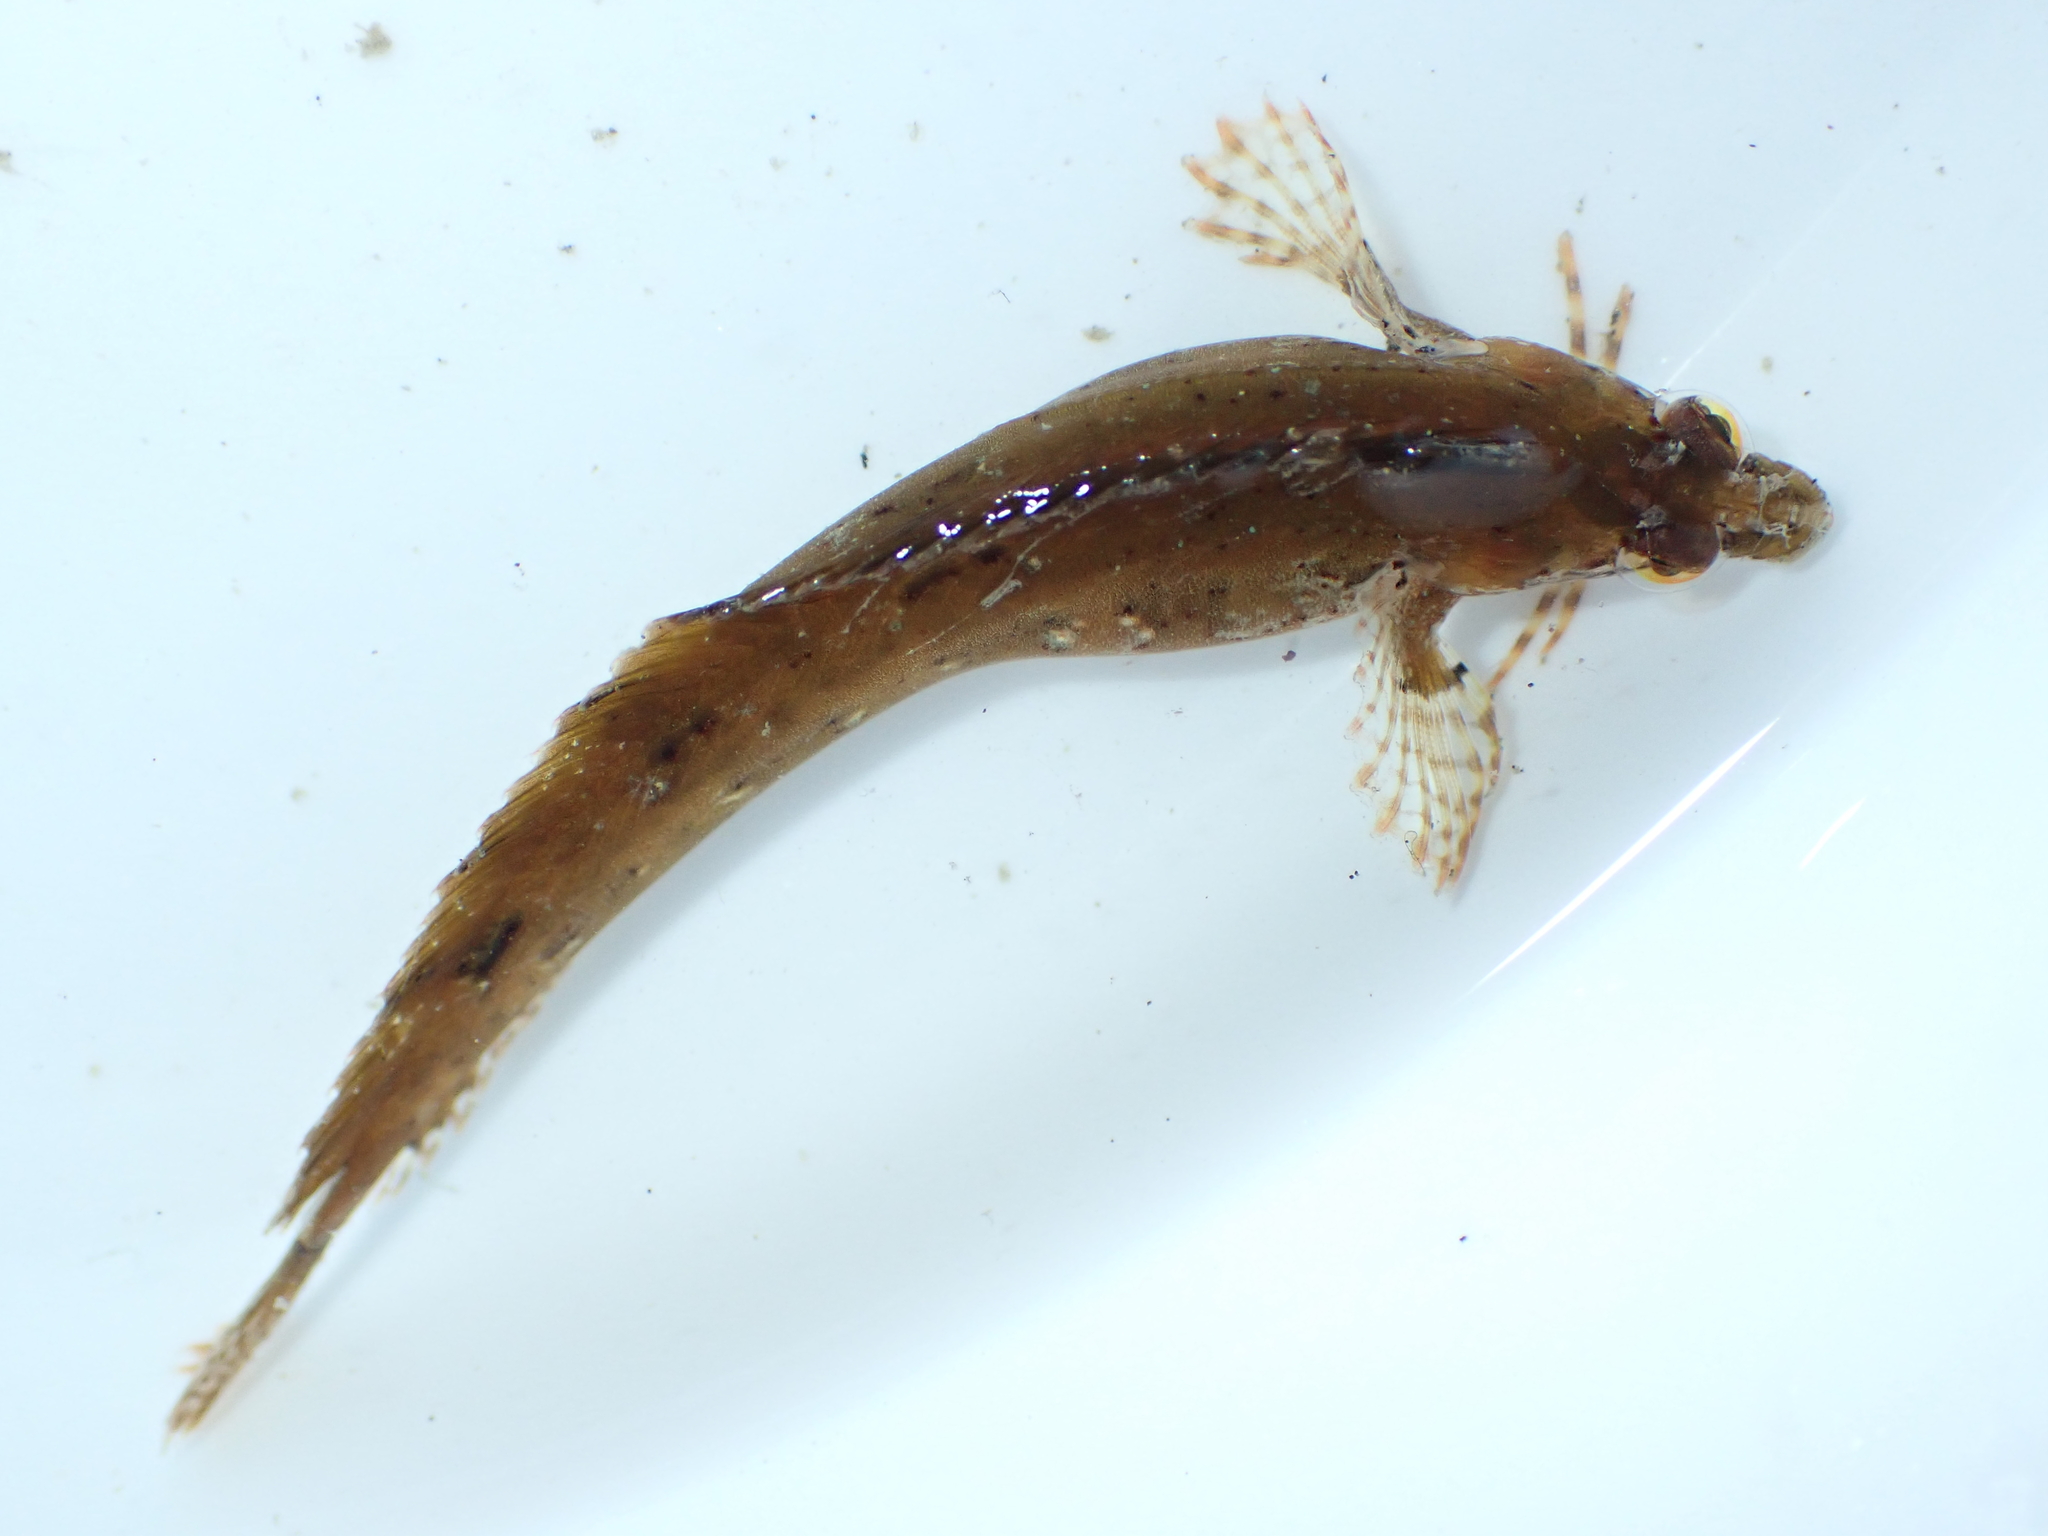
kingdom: Animalia
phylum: Chordata
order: Perciformes
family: Clinidae
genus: Ericentrus
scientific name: Ericentrus rubrus
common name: Orange clinid
